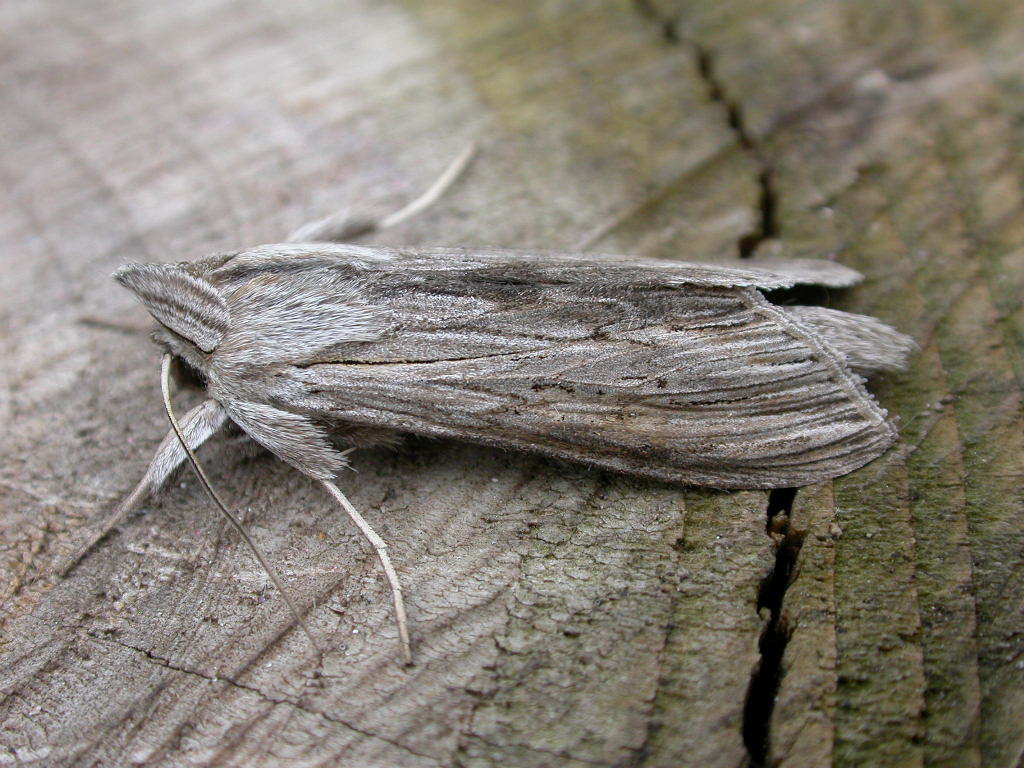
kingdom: Animalia
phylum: Arthropoda
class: Insecta
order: Lepidoptera
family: Noctuidae
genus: Cucullia
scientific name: Cucullia umbratica
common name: Shark
